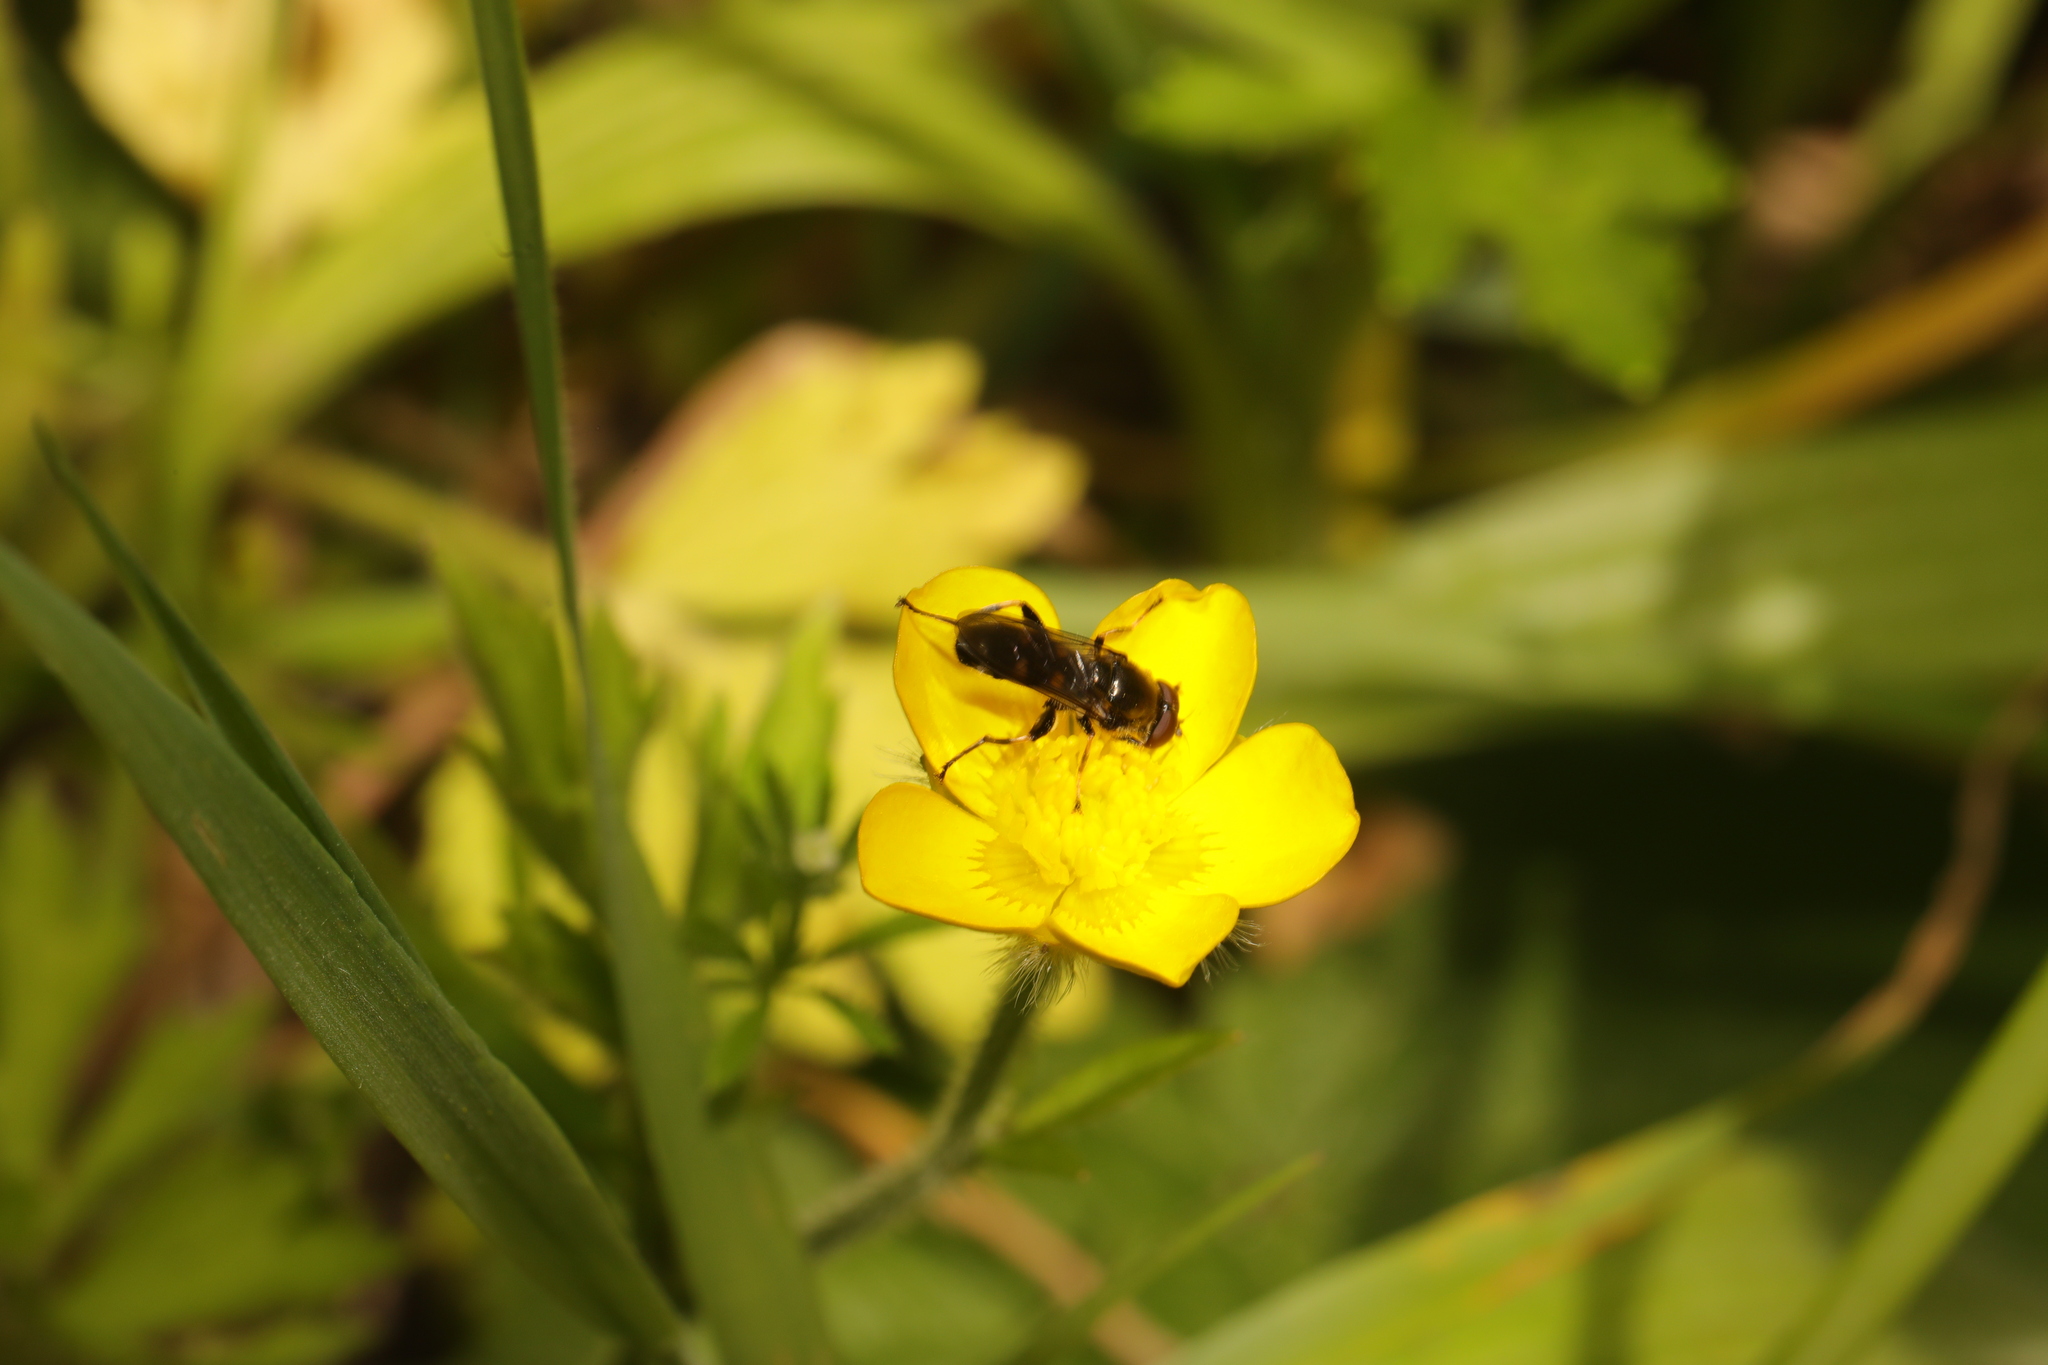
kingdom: Animalia
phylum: Arthropoda
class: Insecta
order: Diptera
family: Syrphidae
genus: Xylota
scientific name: Xylota jakutorum
